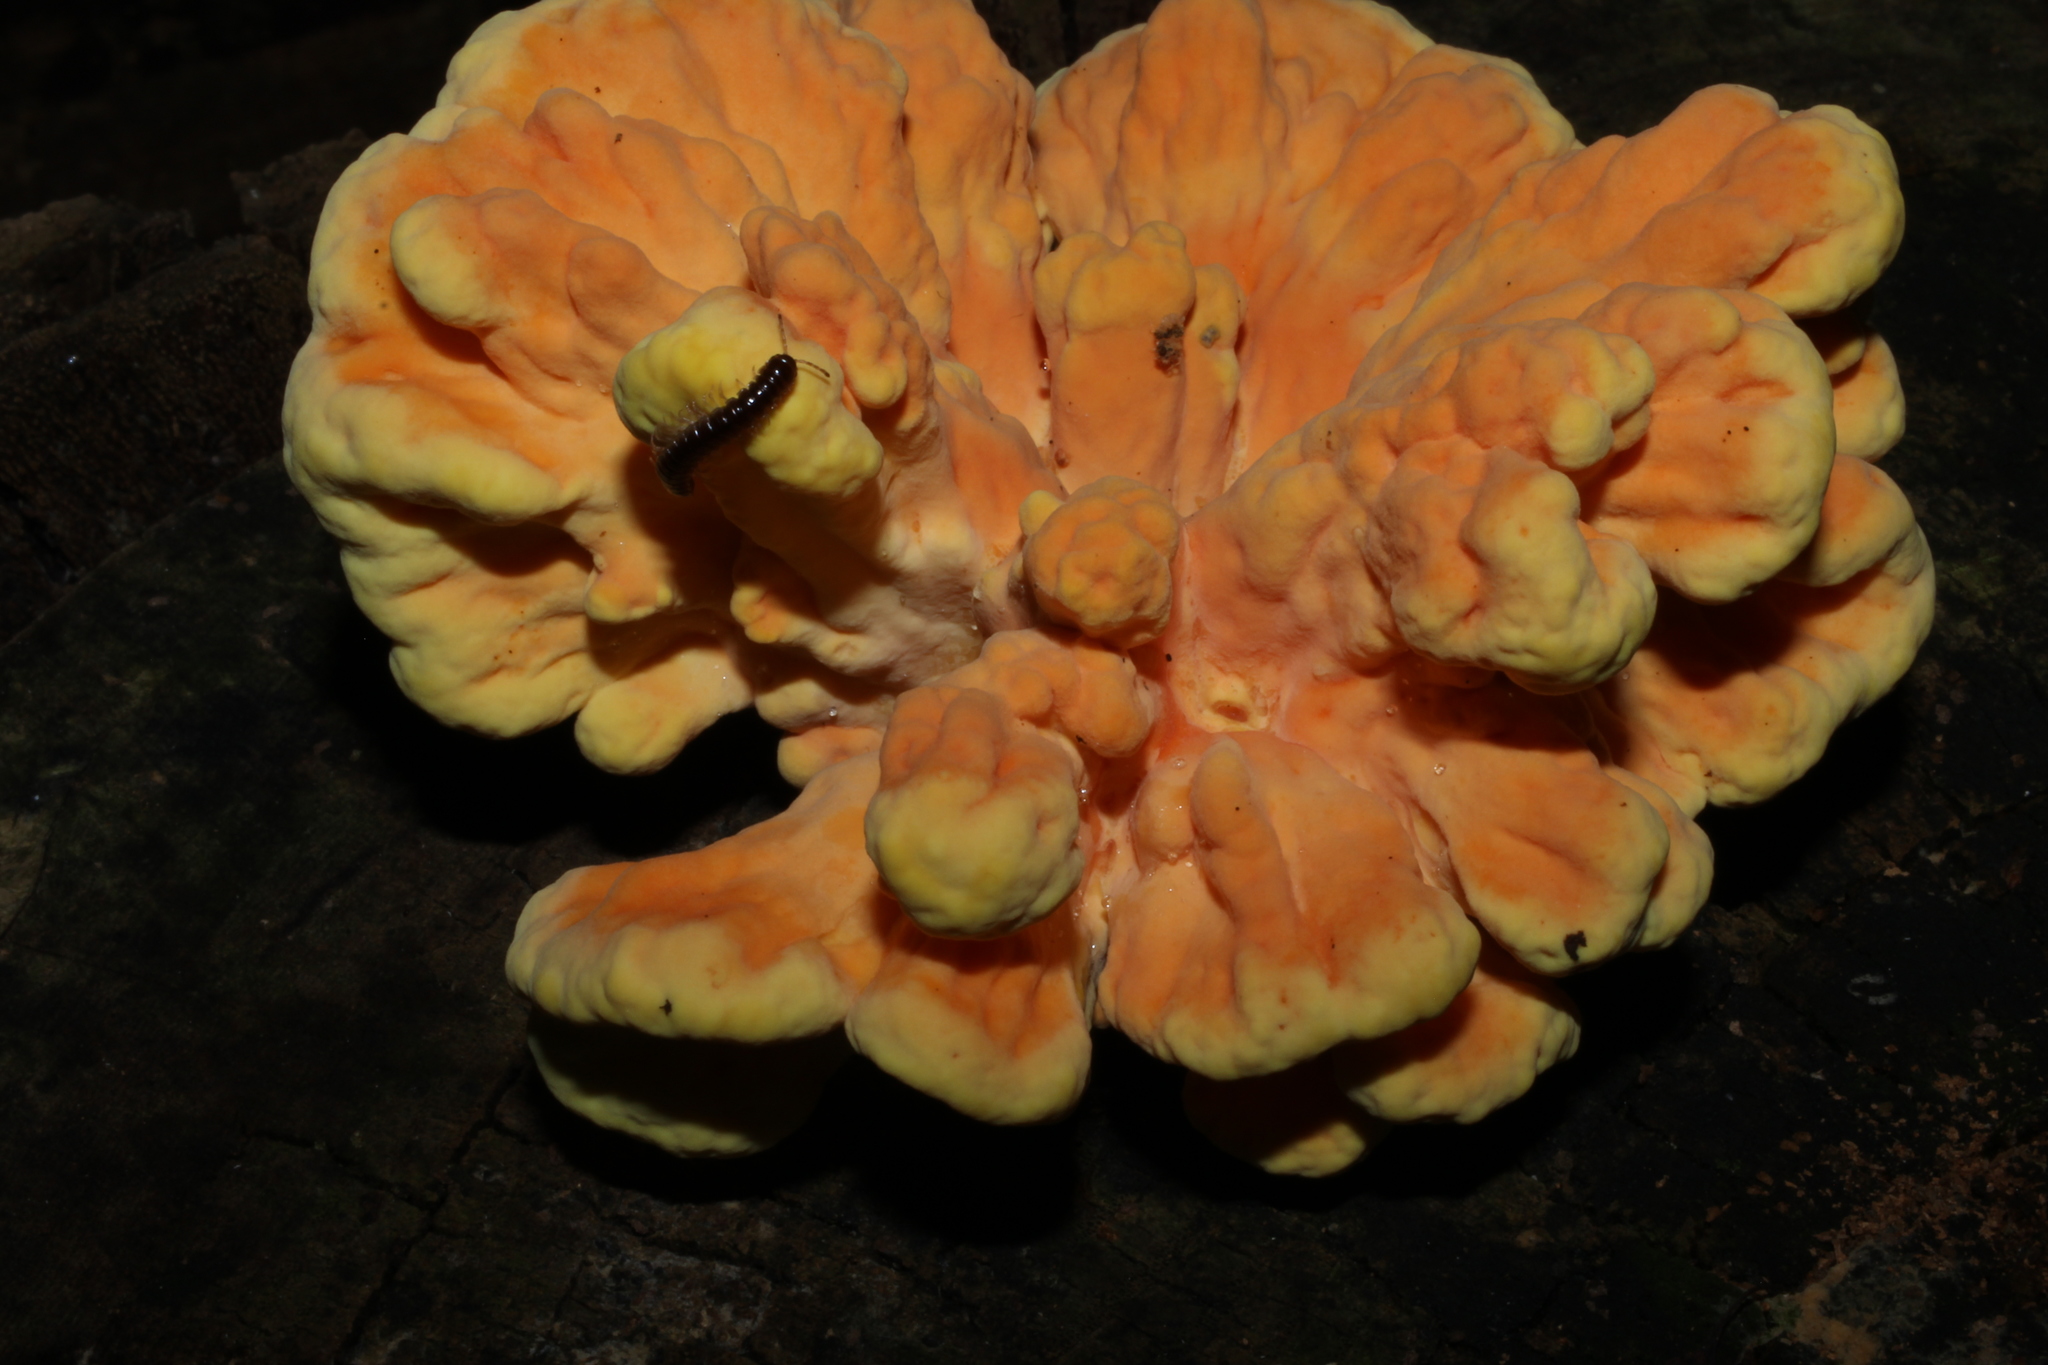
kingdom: Fungi
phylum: Basidiomycota
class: Agaricomycetes
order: Polyporales
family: Laetiporaceae
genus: Laetiporus
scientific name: Laetiporus sulphureus
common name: Chicken of the woods
